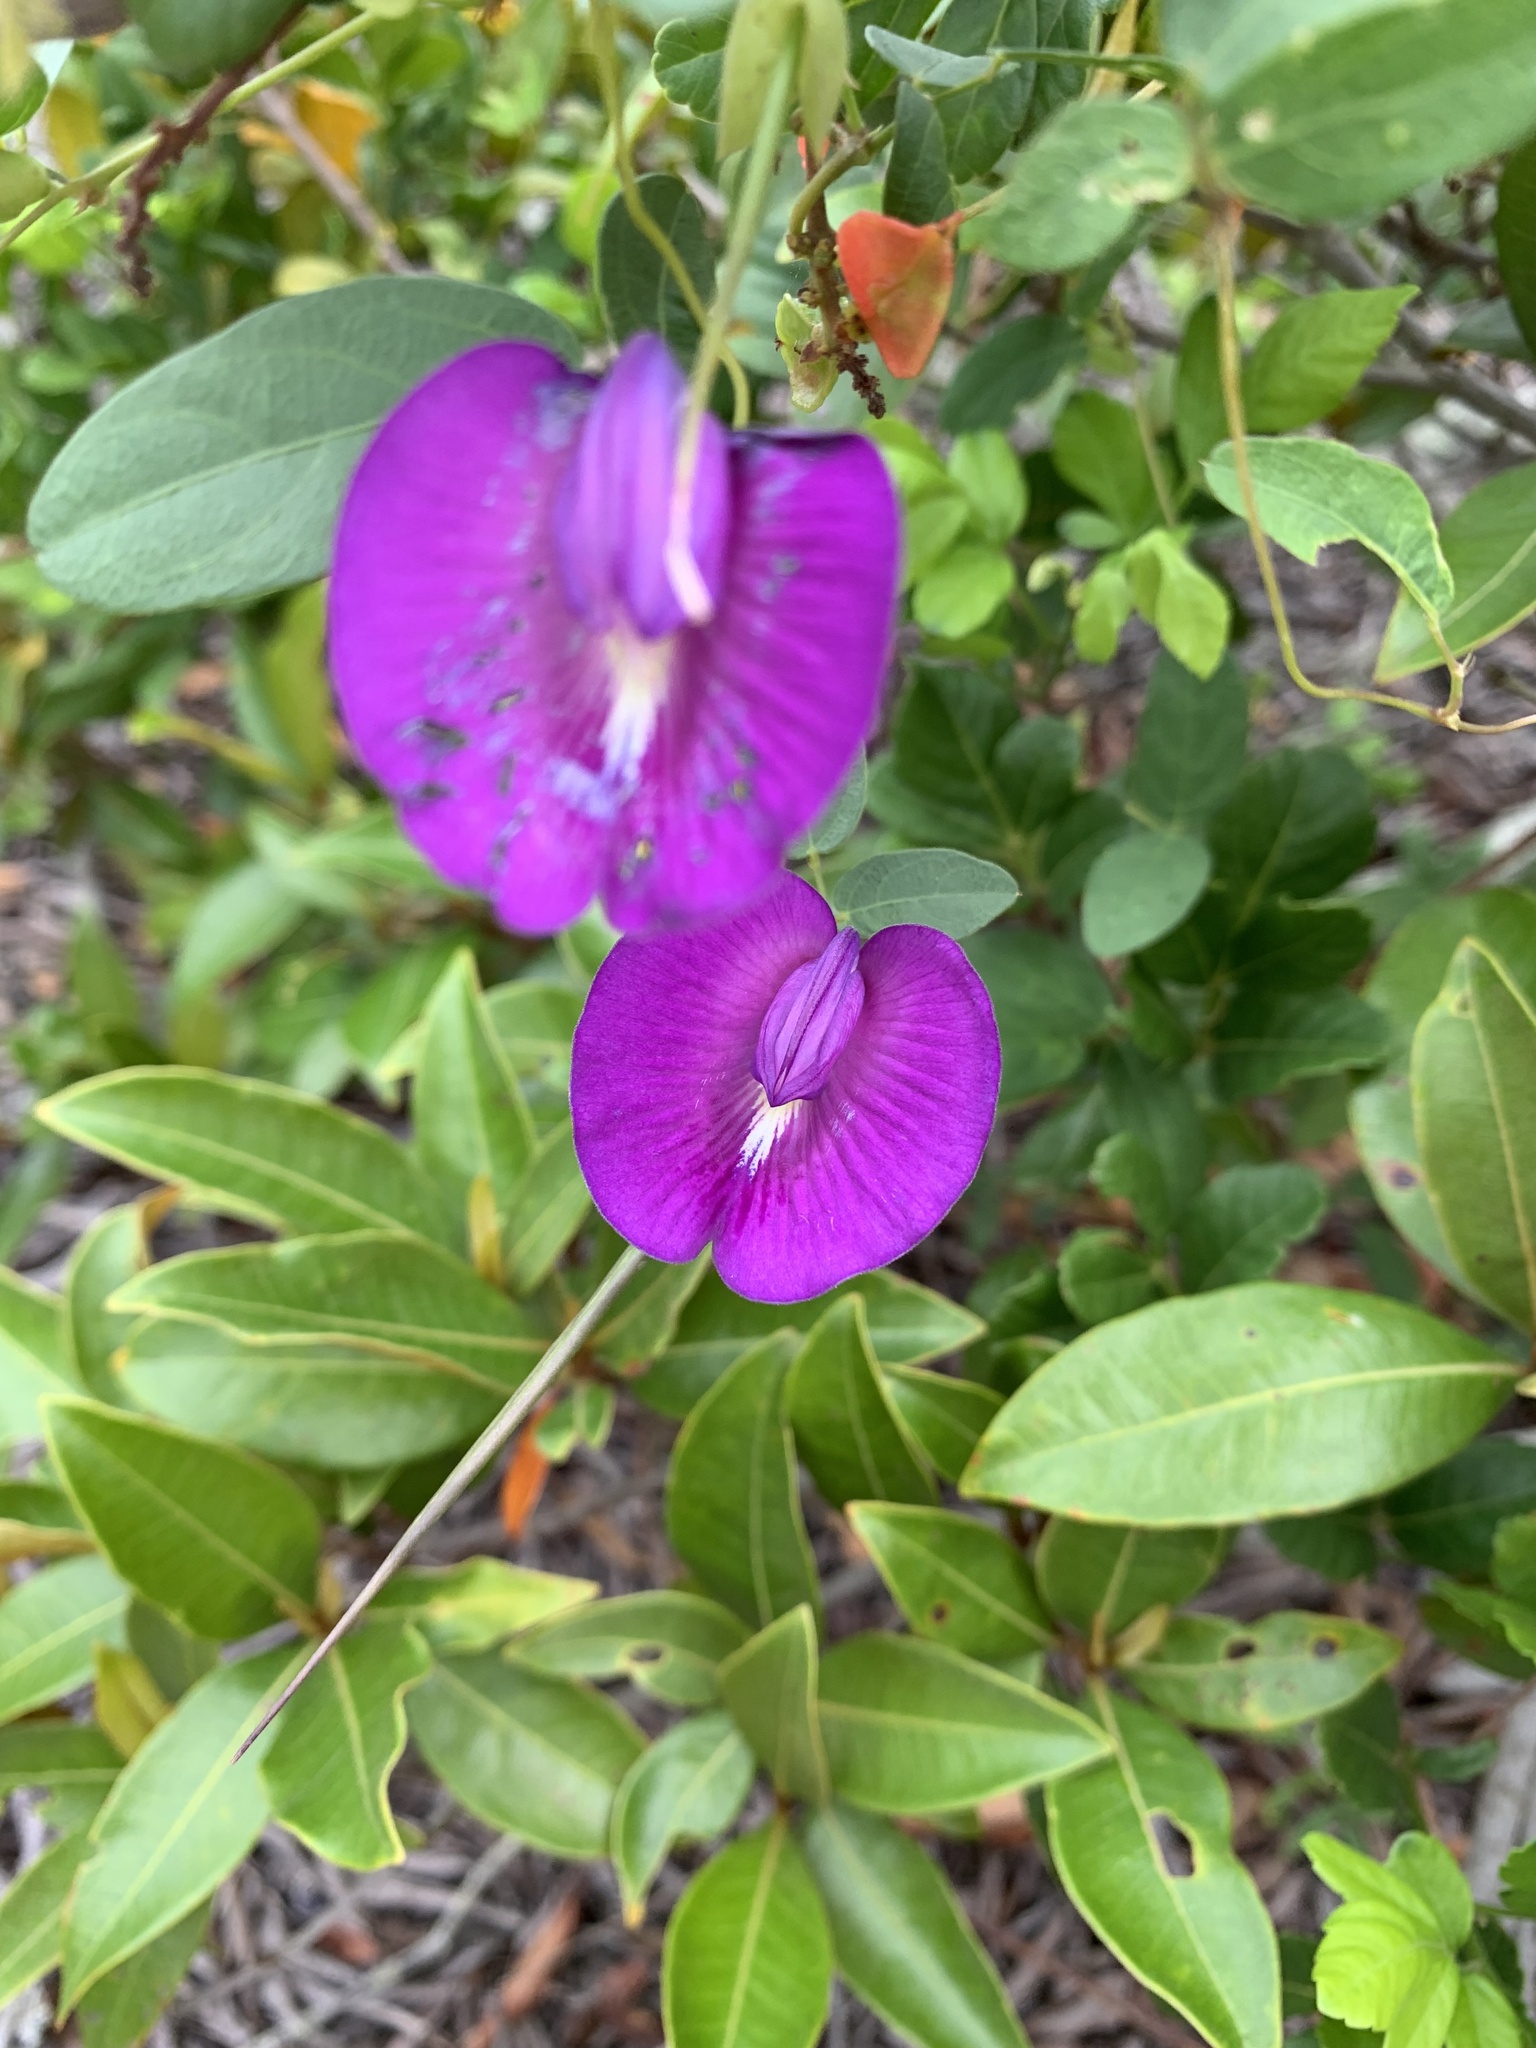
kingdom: Plantae
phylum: Tracheophyta
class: Magnoliopsida
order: Fabales
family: Fabaceae
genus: Centrosema
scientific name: Centrosema brasilianum
